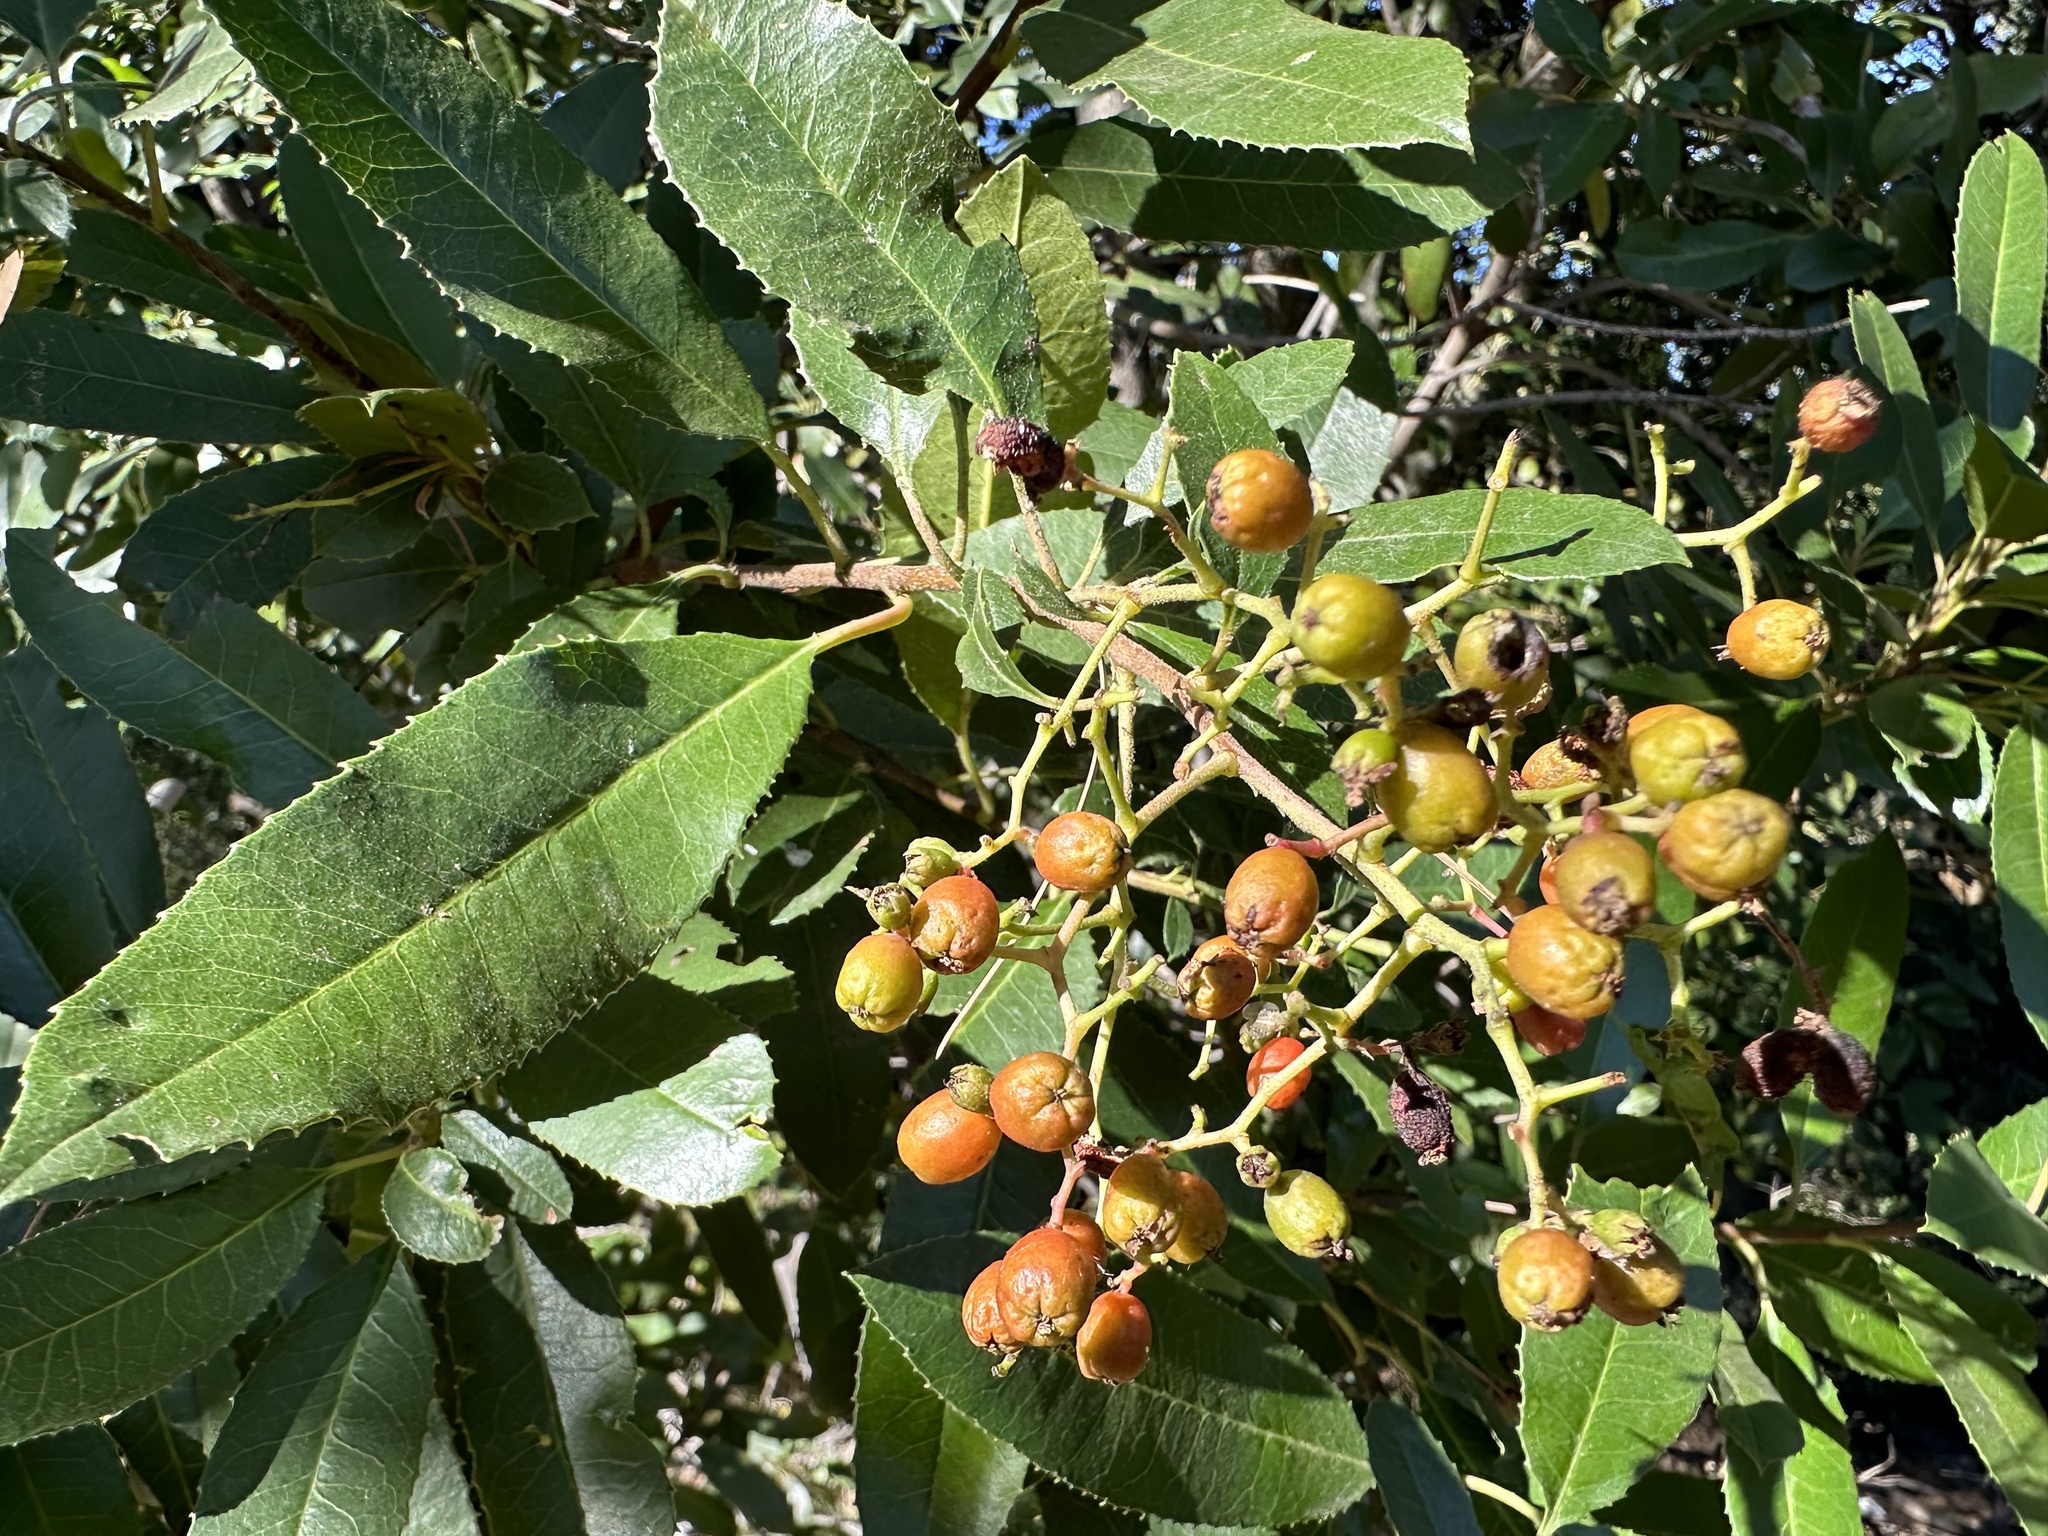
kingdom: Plantae
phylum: Tracheophyta
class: Magnoliopsida
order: Rosales
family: Rosaceae
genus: Heteromeles
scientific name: Heteromeles arbutifolia
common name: California-holly
